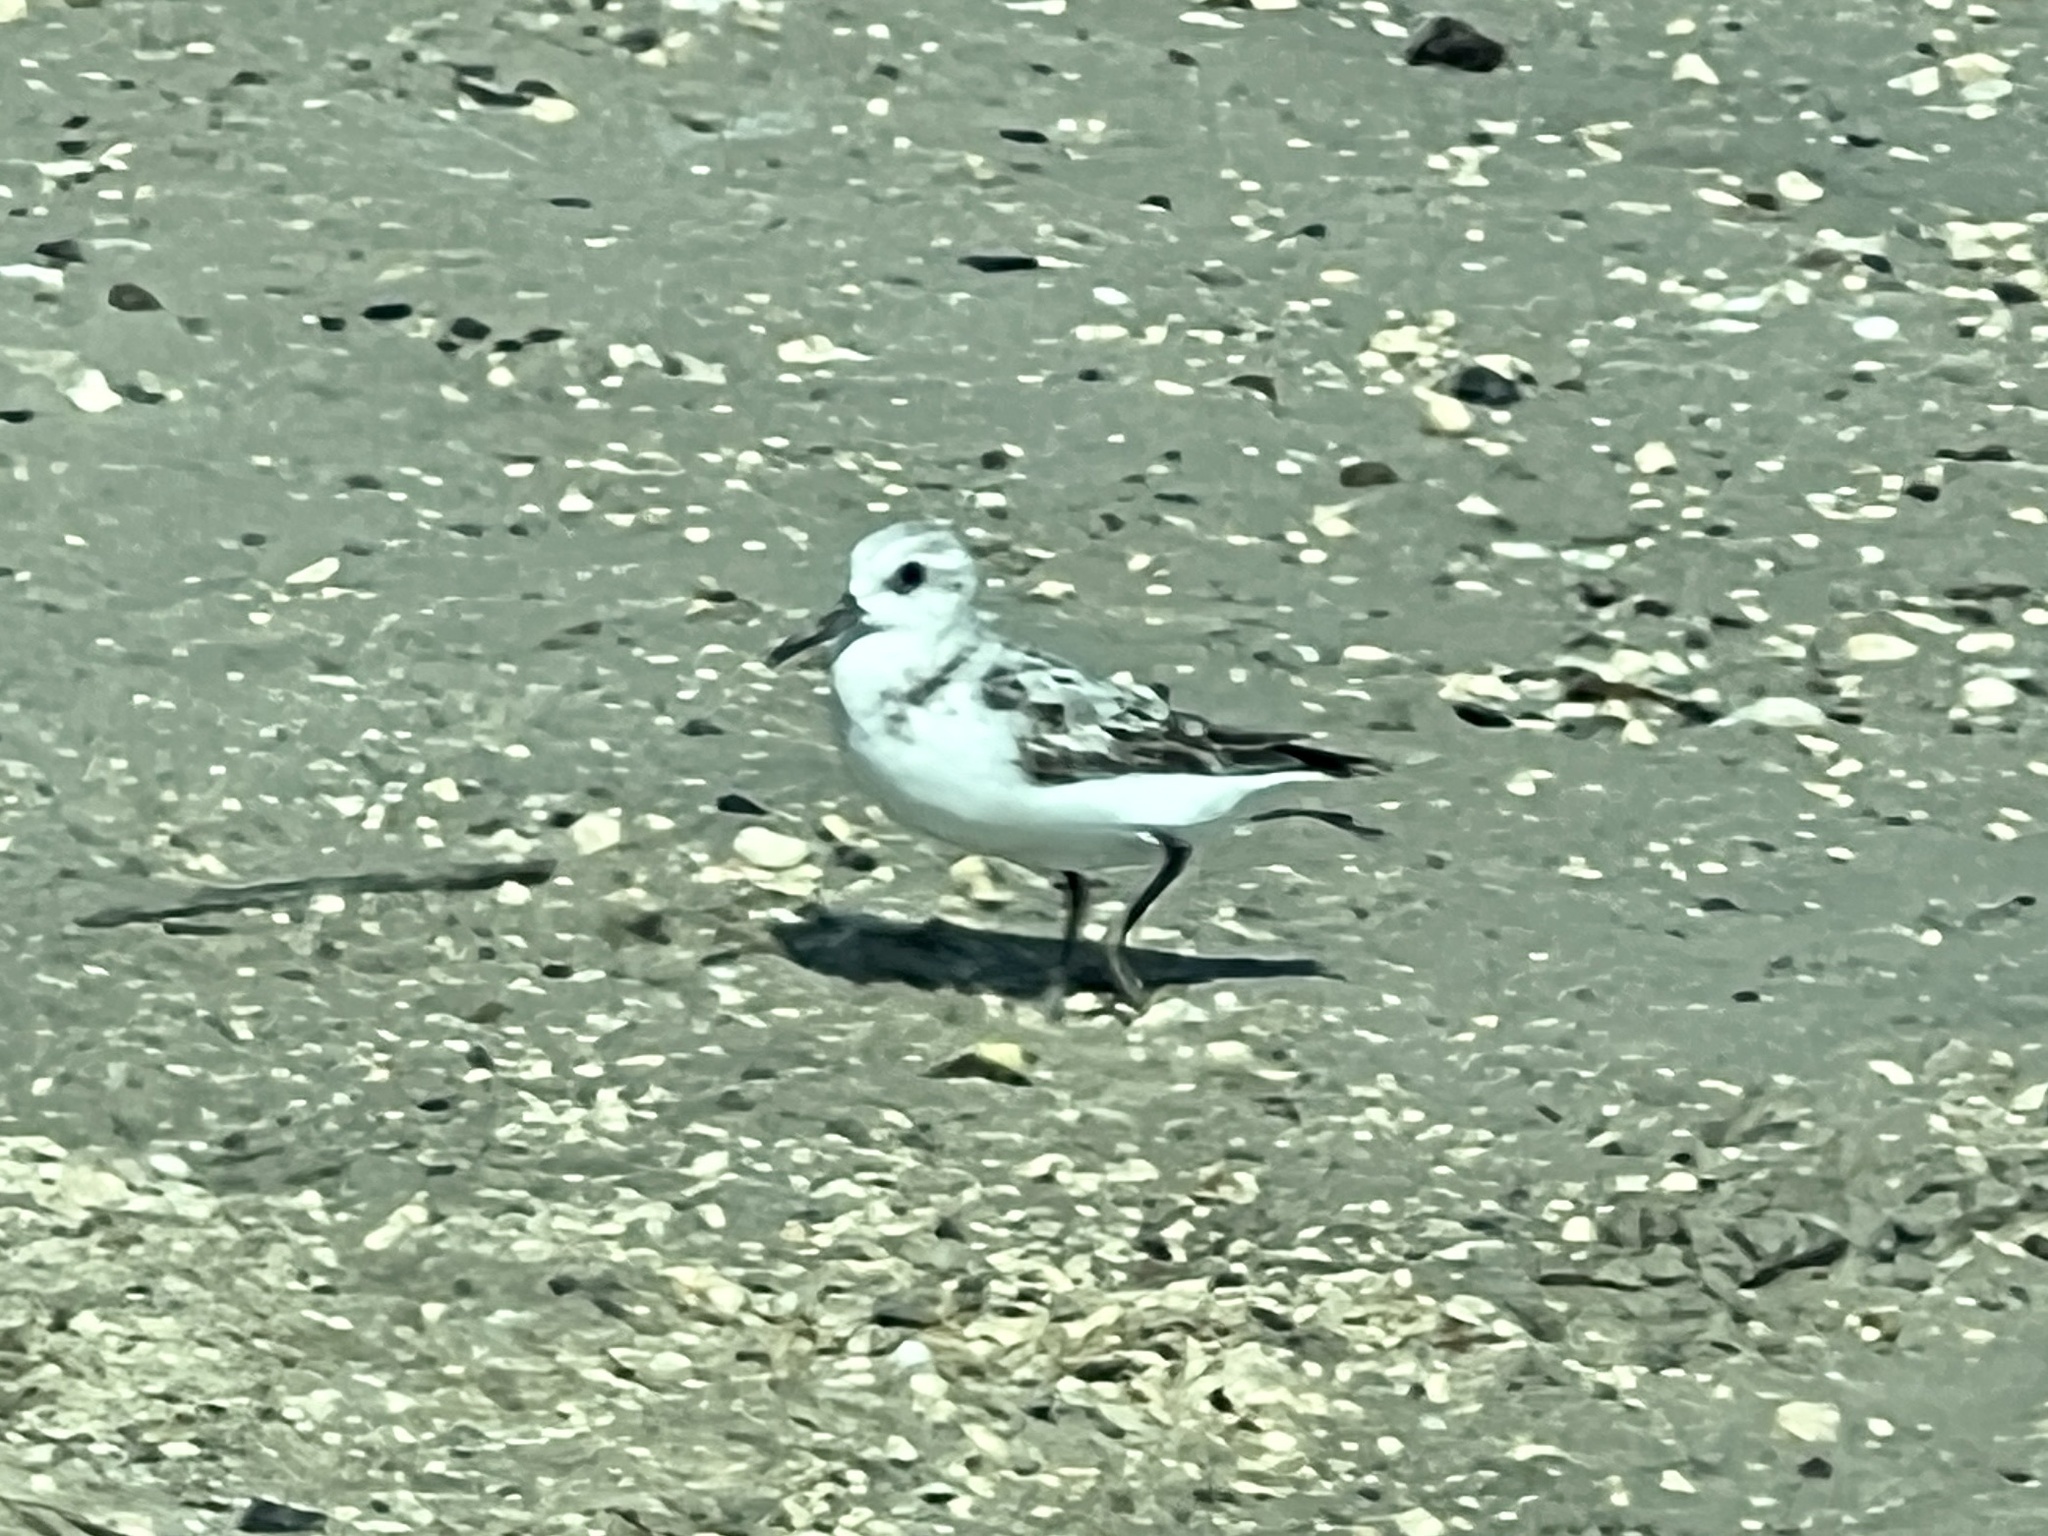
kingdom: Animalia
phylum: Chordata
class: Aves
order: Charadriiformes
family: Scolopacidae
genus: Calidris
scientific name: Calidris alba
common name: Sanderling
